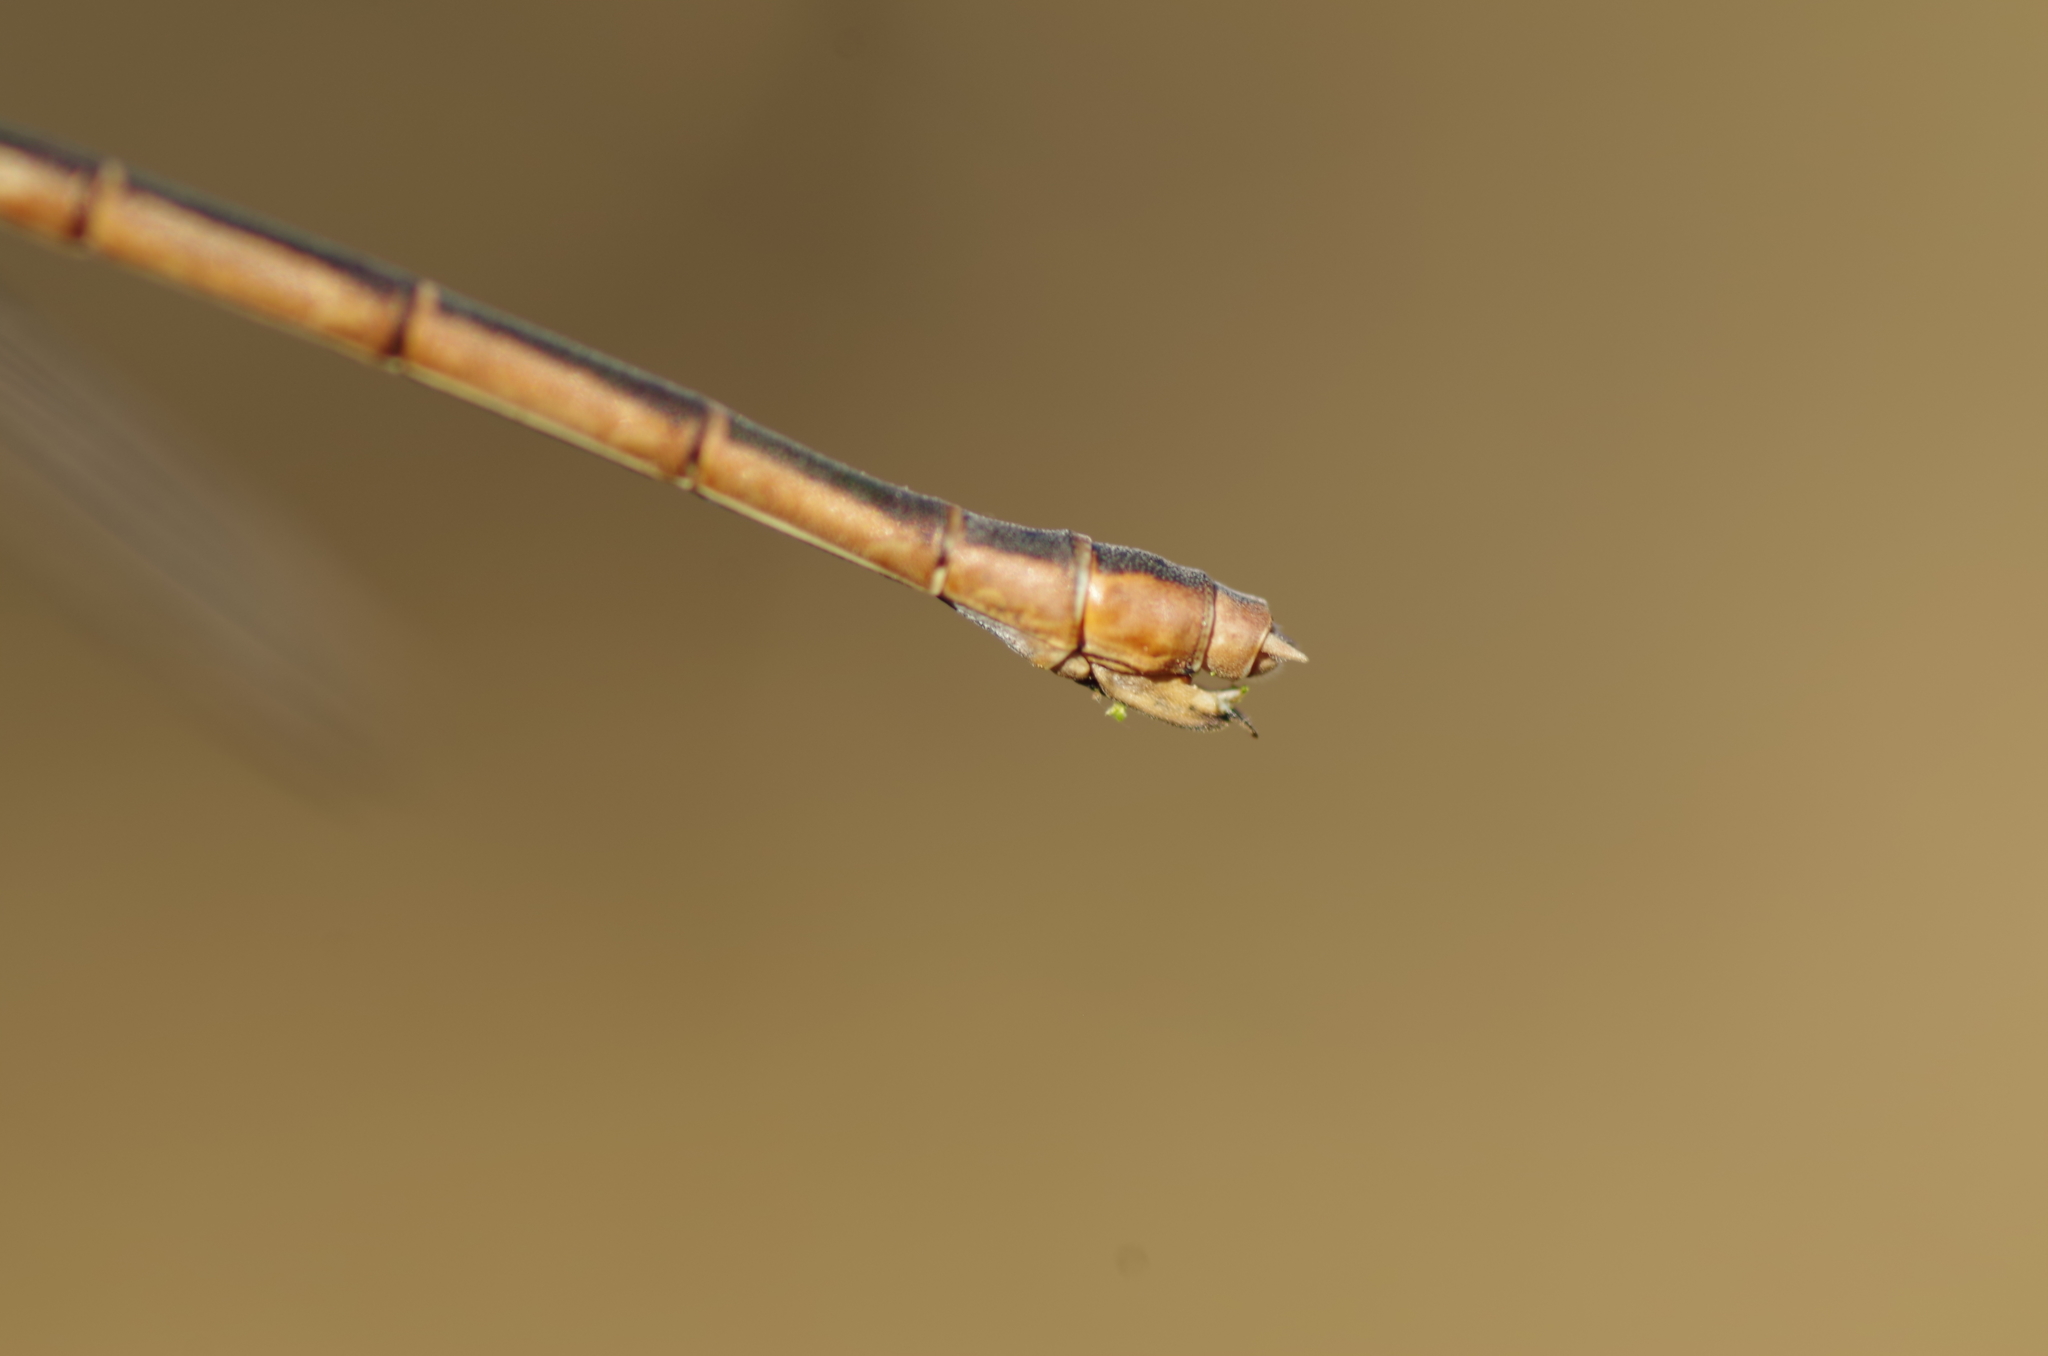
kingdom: Animalia
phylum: Arthropoda
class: Insecta
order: Odonata
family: Lestidae
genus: Lestes
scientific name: Lestes barbarus
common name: Migrant spreadwing
